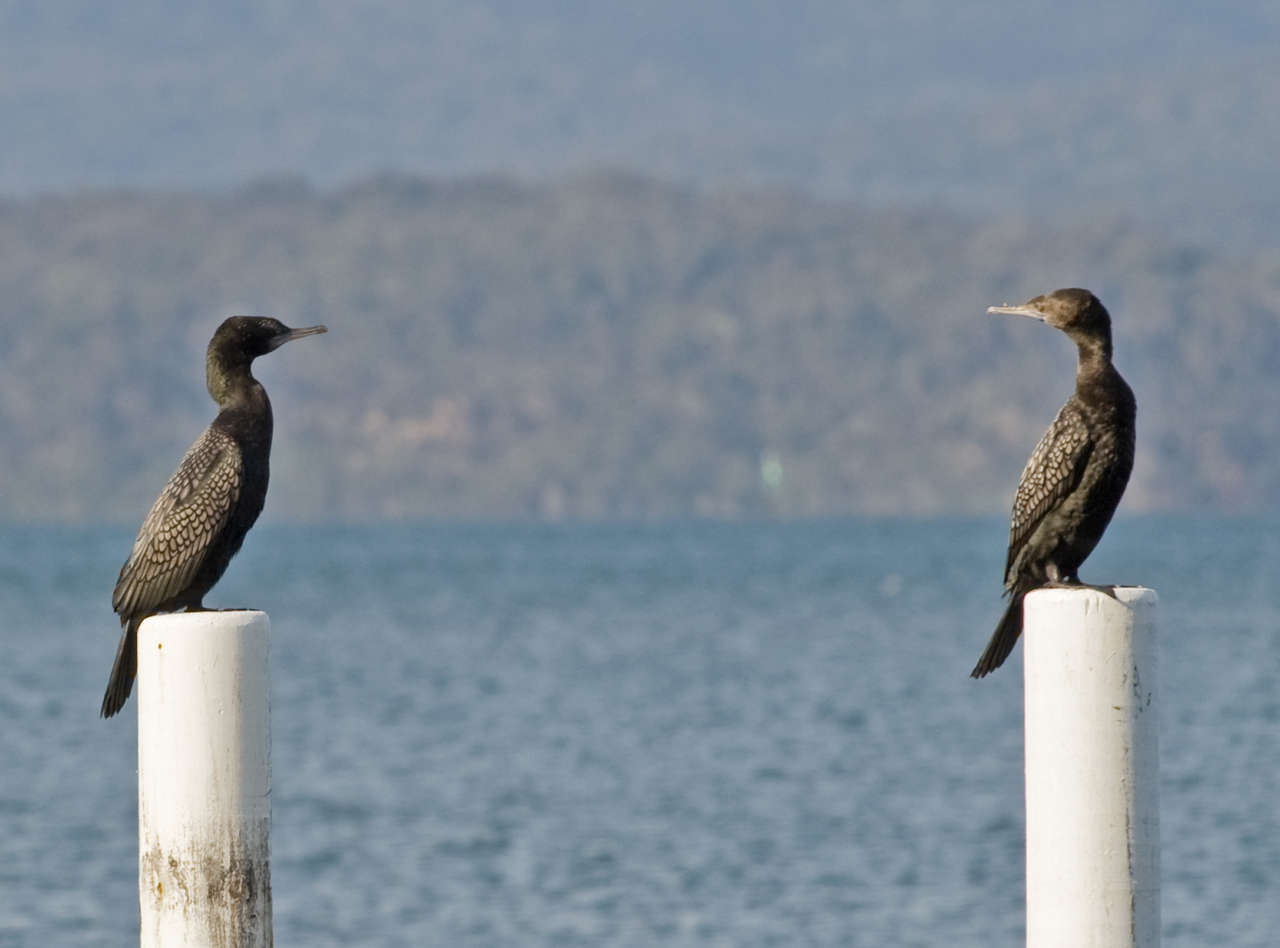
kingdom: Animalia
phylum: Chordata
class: Aves
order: Suliformes
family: Phalacrocoracidae
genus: Phalacrocorax
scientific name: Phalacrocorax sulcirostris
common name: Little black cormorant
